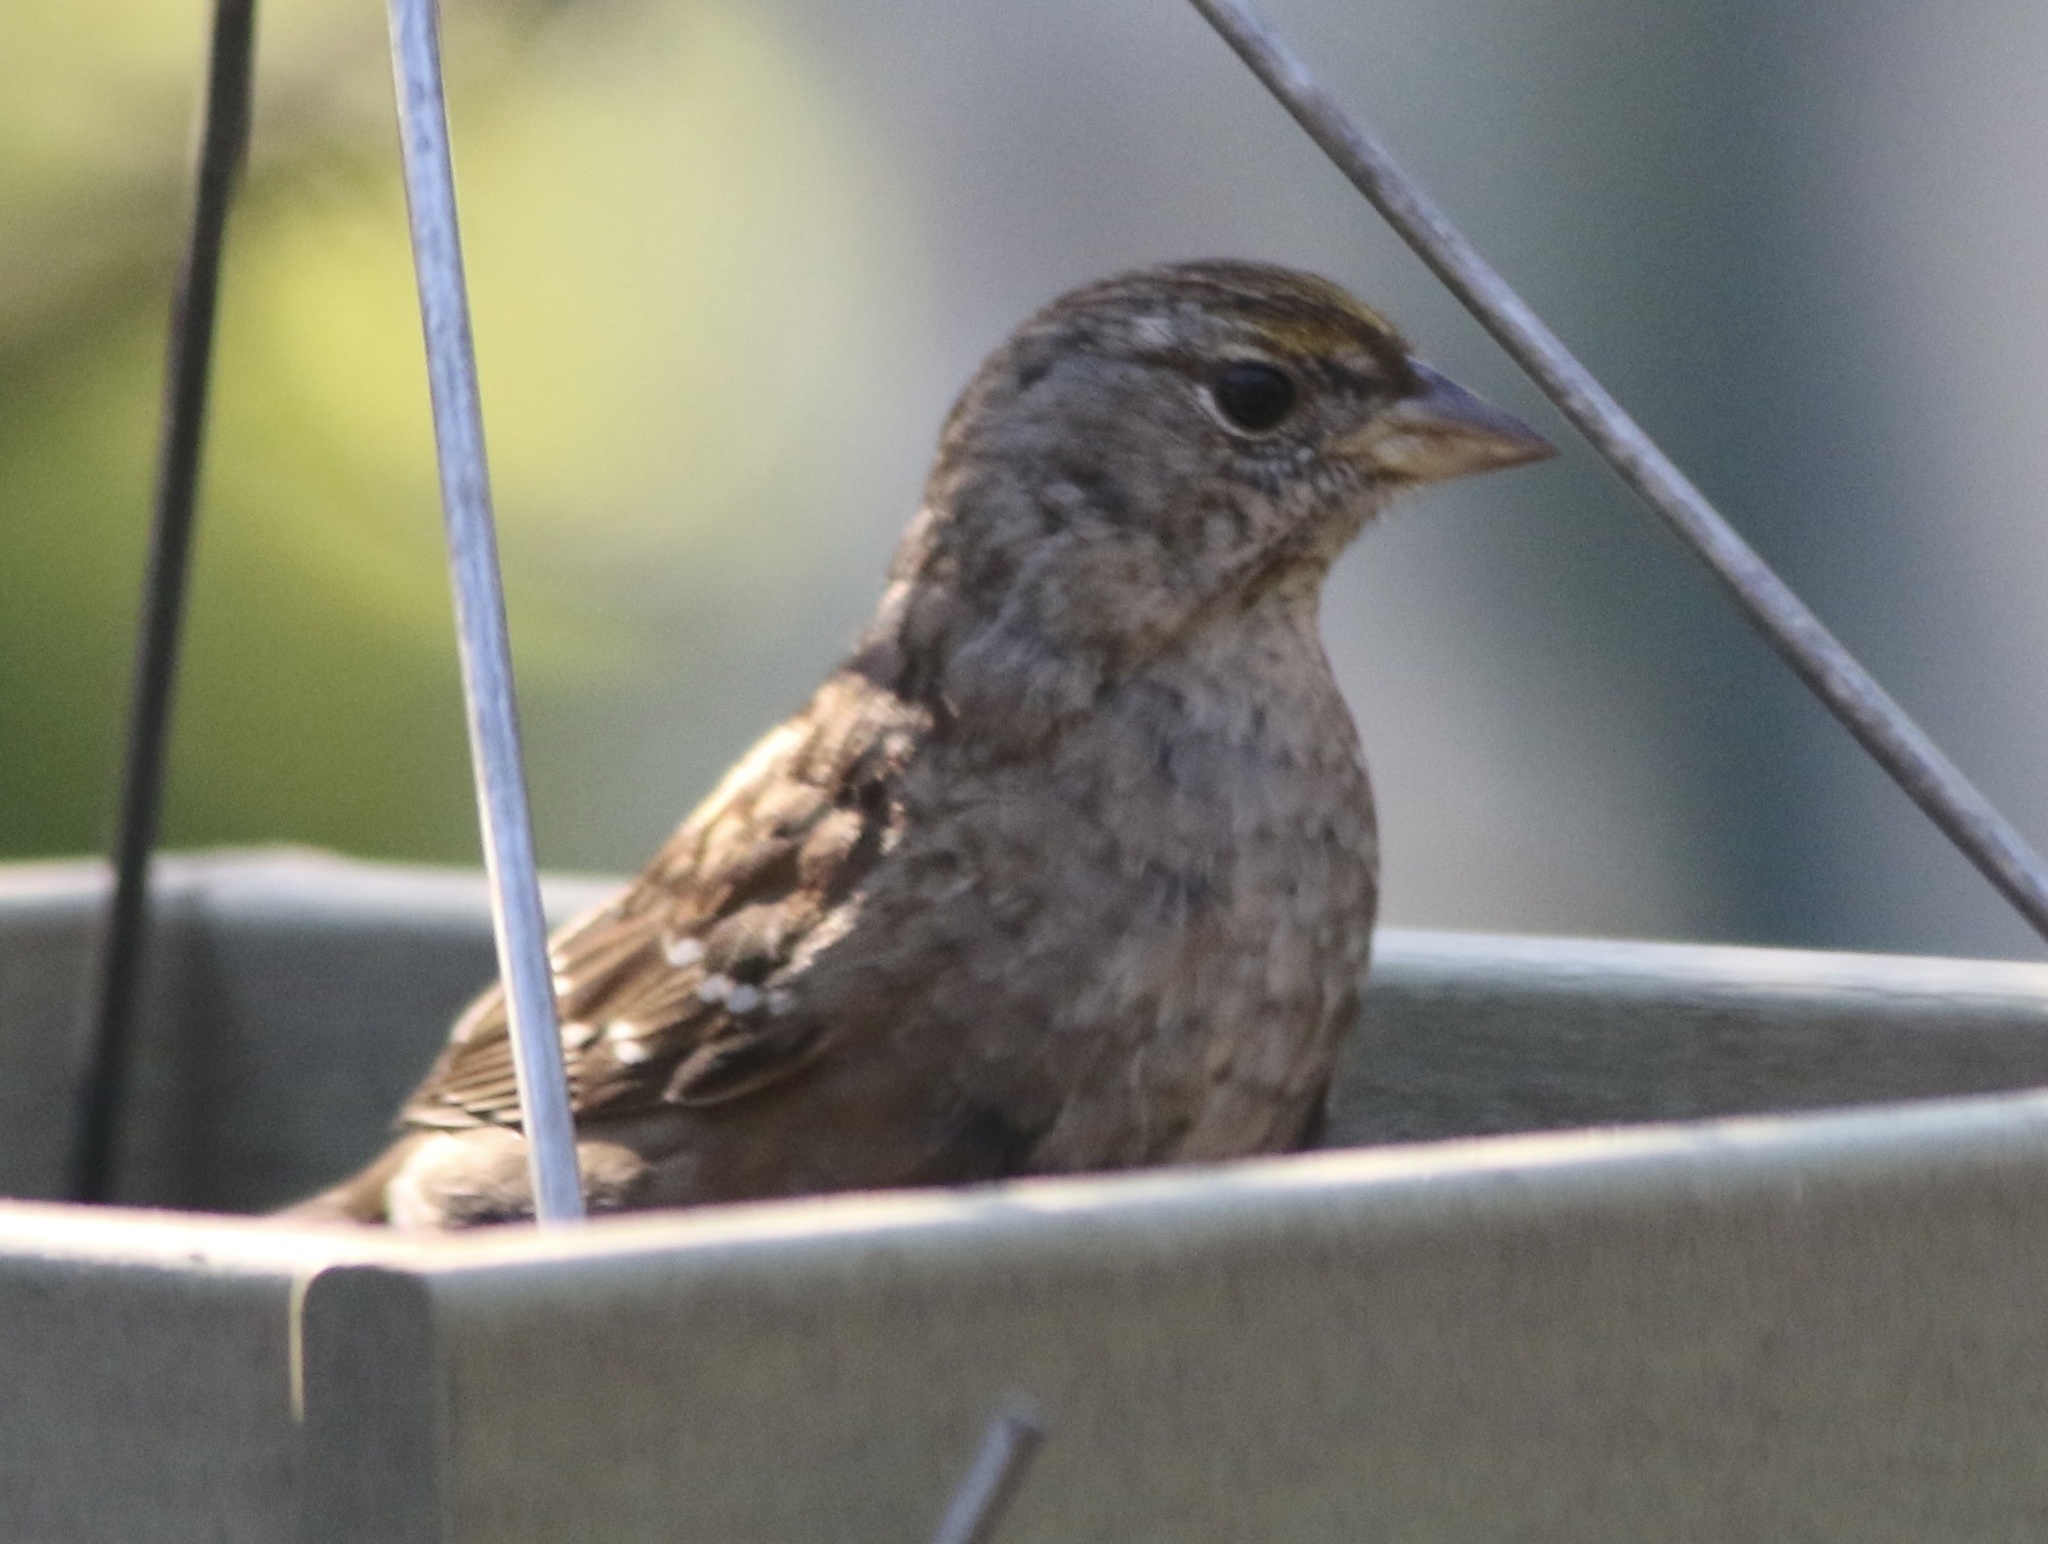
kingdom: Animalia
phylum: Chordata
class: Aves
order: Passeriformes
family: Passerellidae
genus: Zonotrichia
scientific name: Zonotrichia atricapilla
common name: Golden-crowned sparrow
